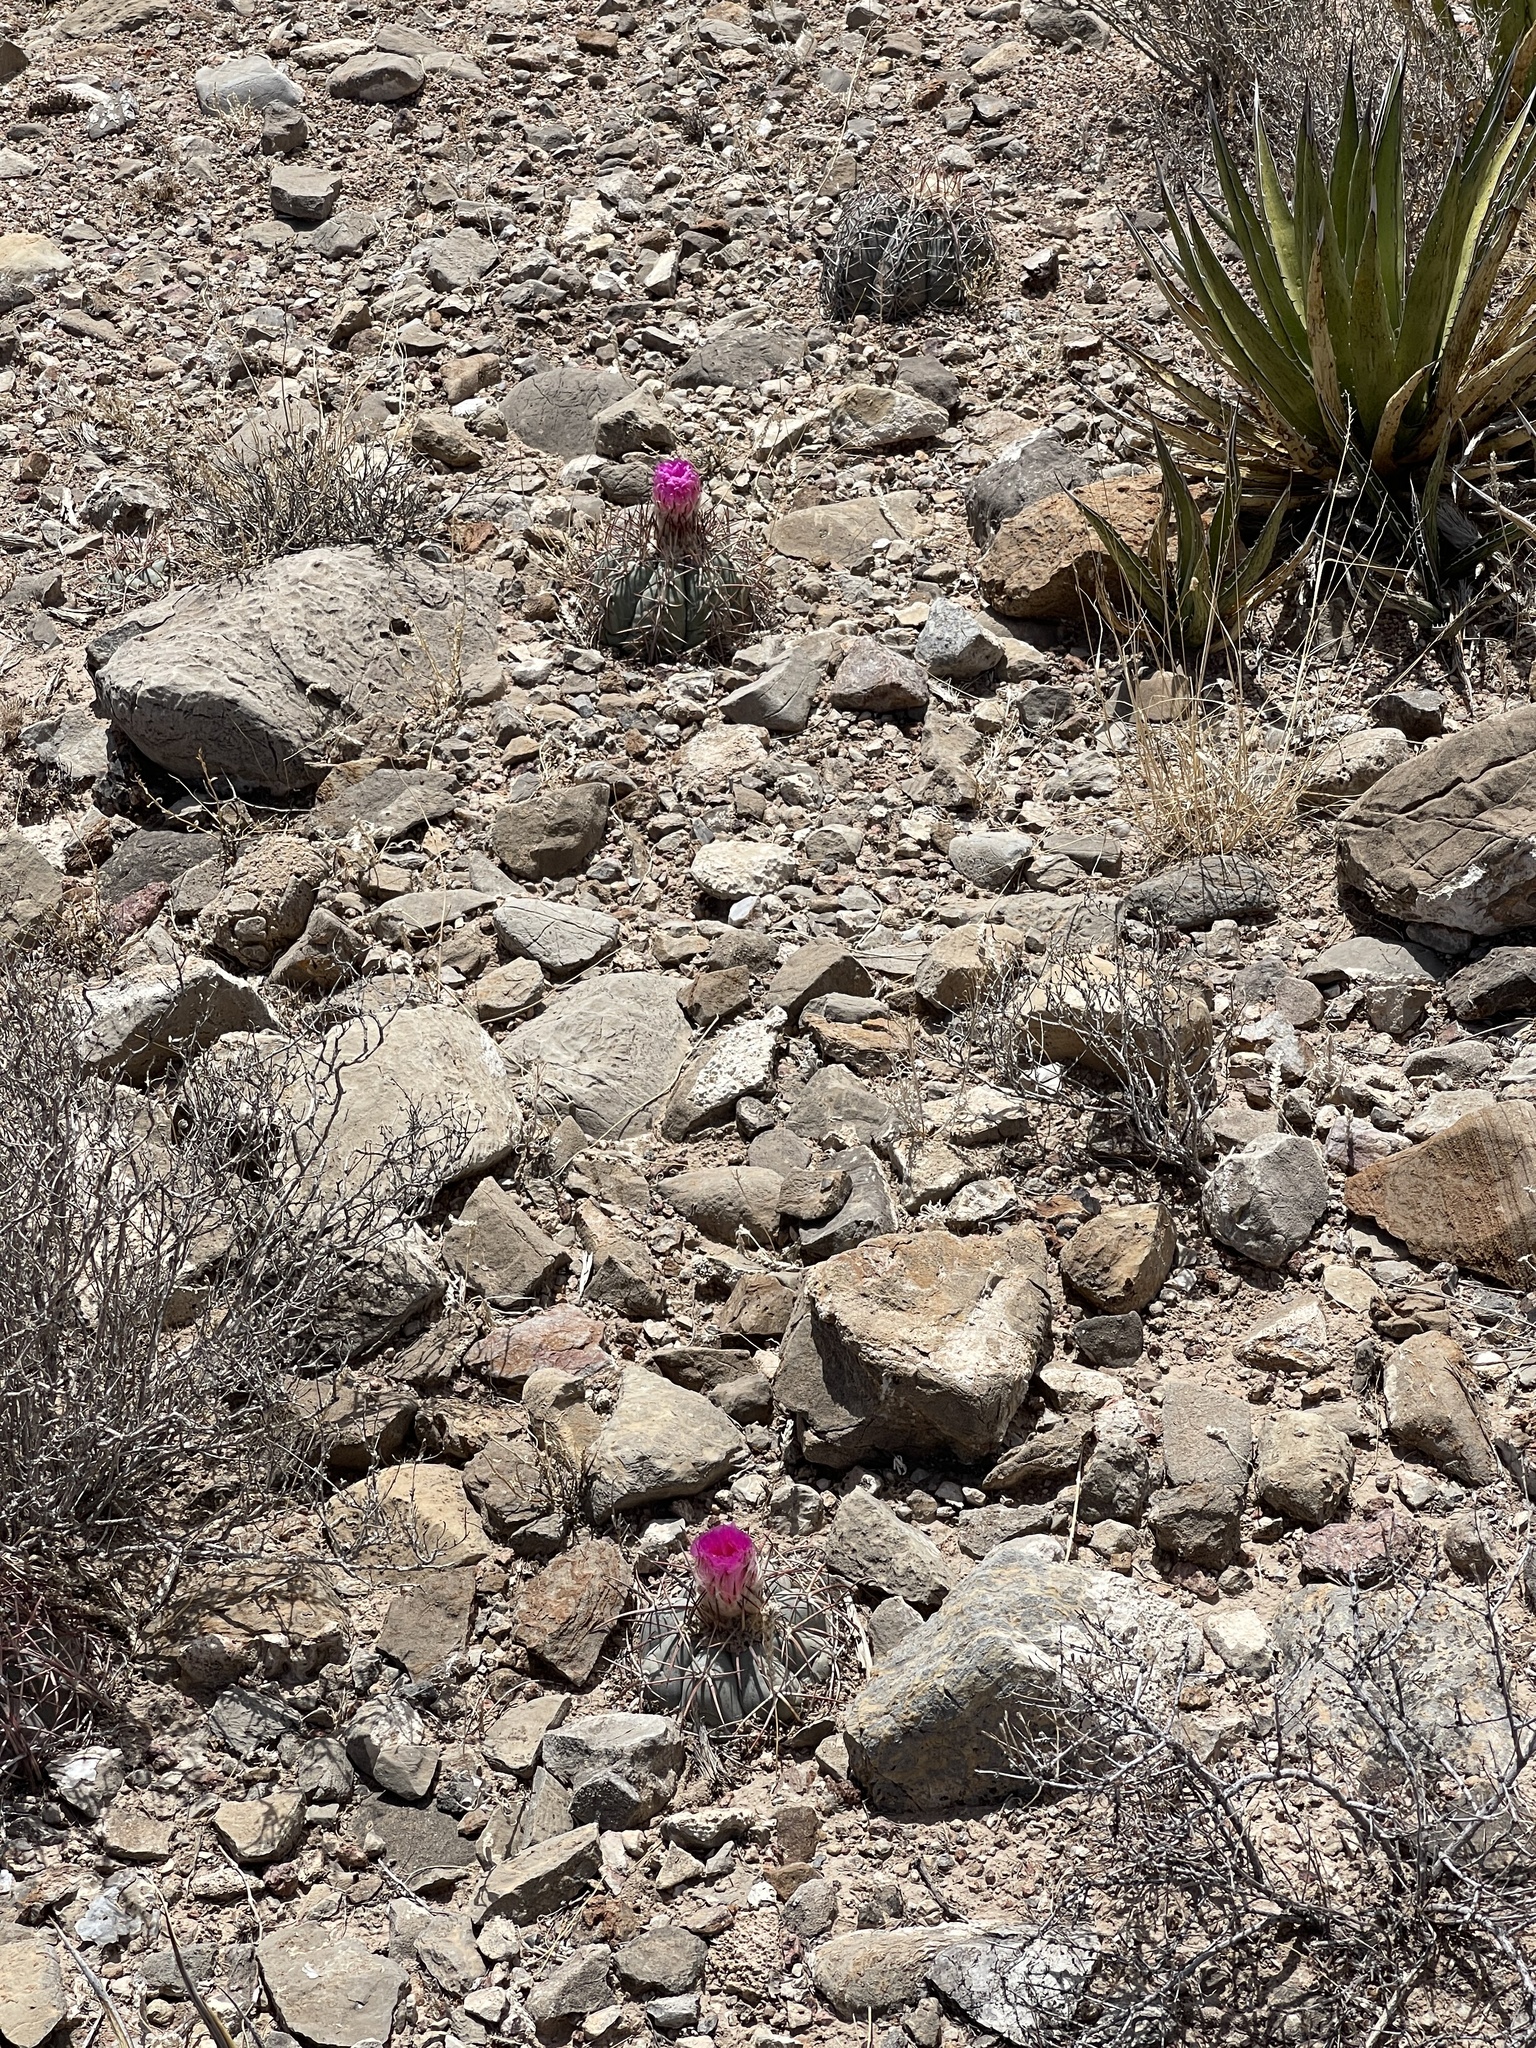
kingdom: Plantae
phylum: Tracheophyta
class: Magnoliopsida
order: Caryophyllales
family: Cactaceae
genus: Echinocactus
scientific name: Echinocactus horizonthalonius
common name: Devilshead
